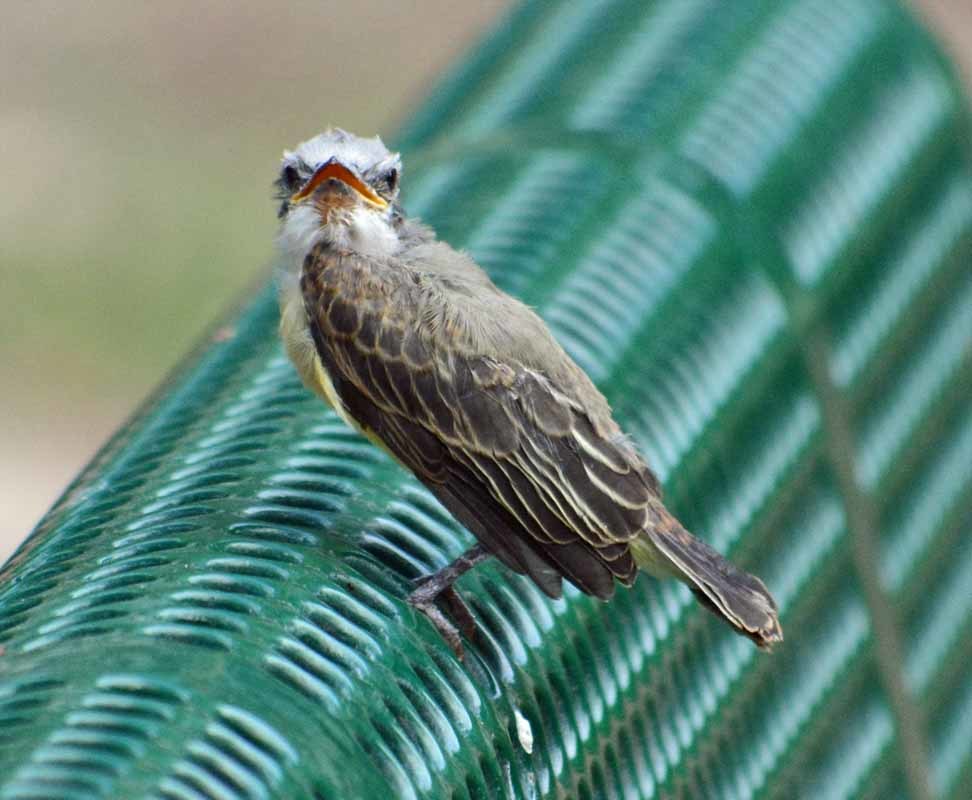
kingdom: Animalia
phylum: Chordata
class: Aves
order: Passeriformes
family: Tyrannidae
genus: Pitangus
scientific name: Pitangus sulphuratus
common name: Great kiskadee
